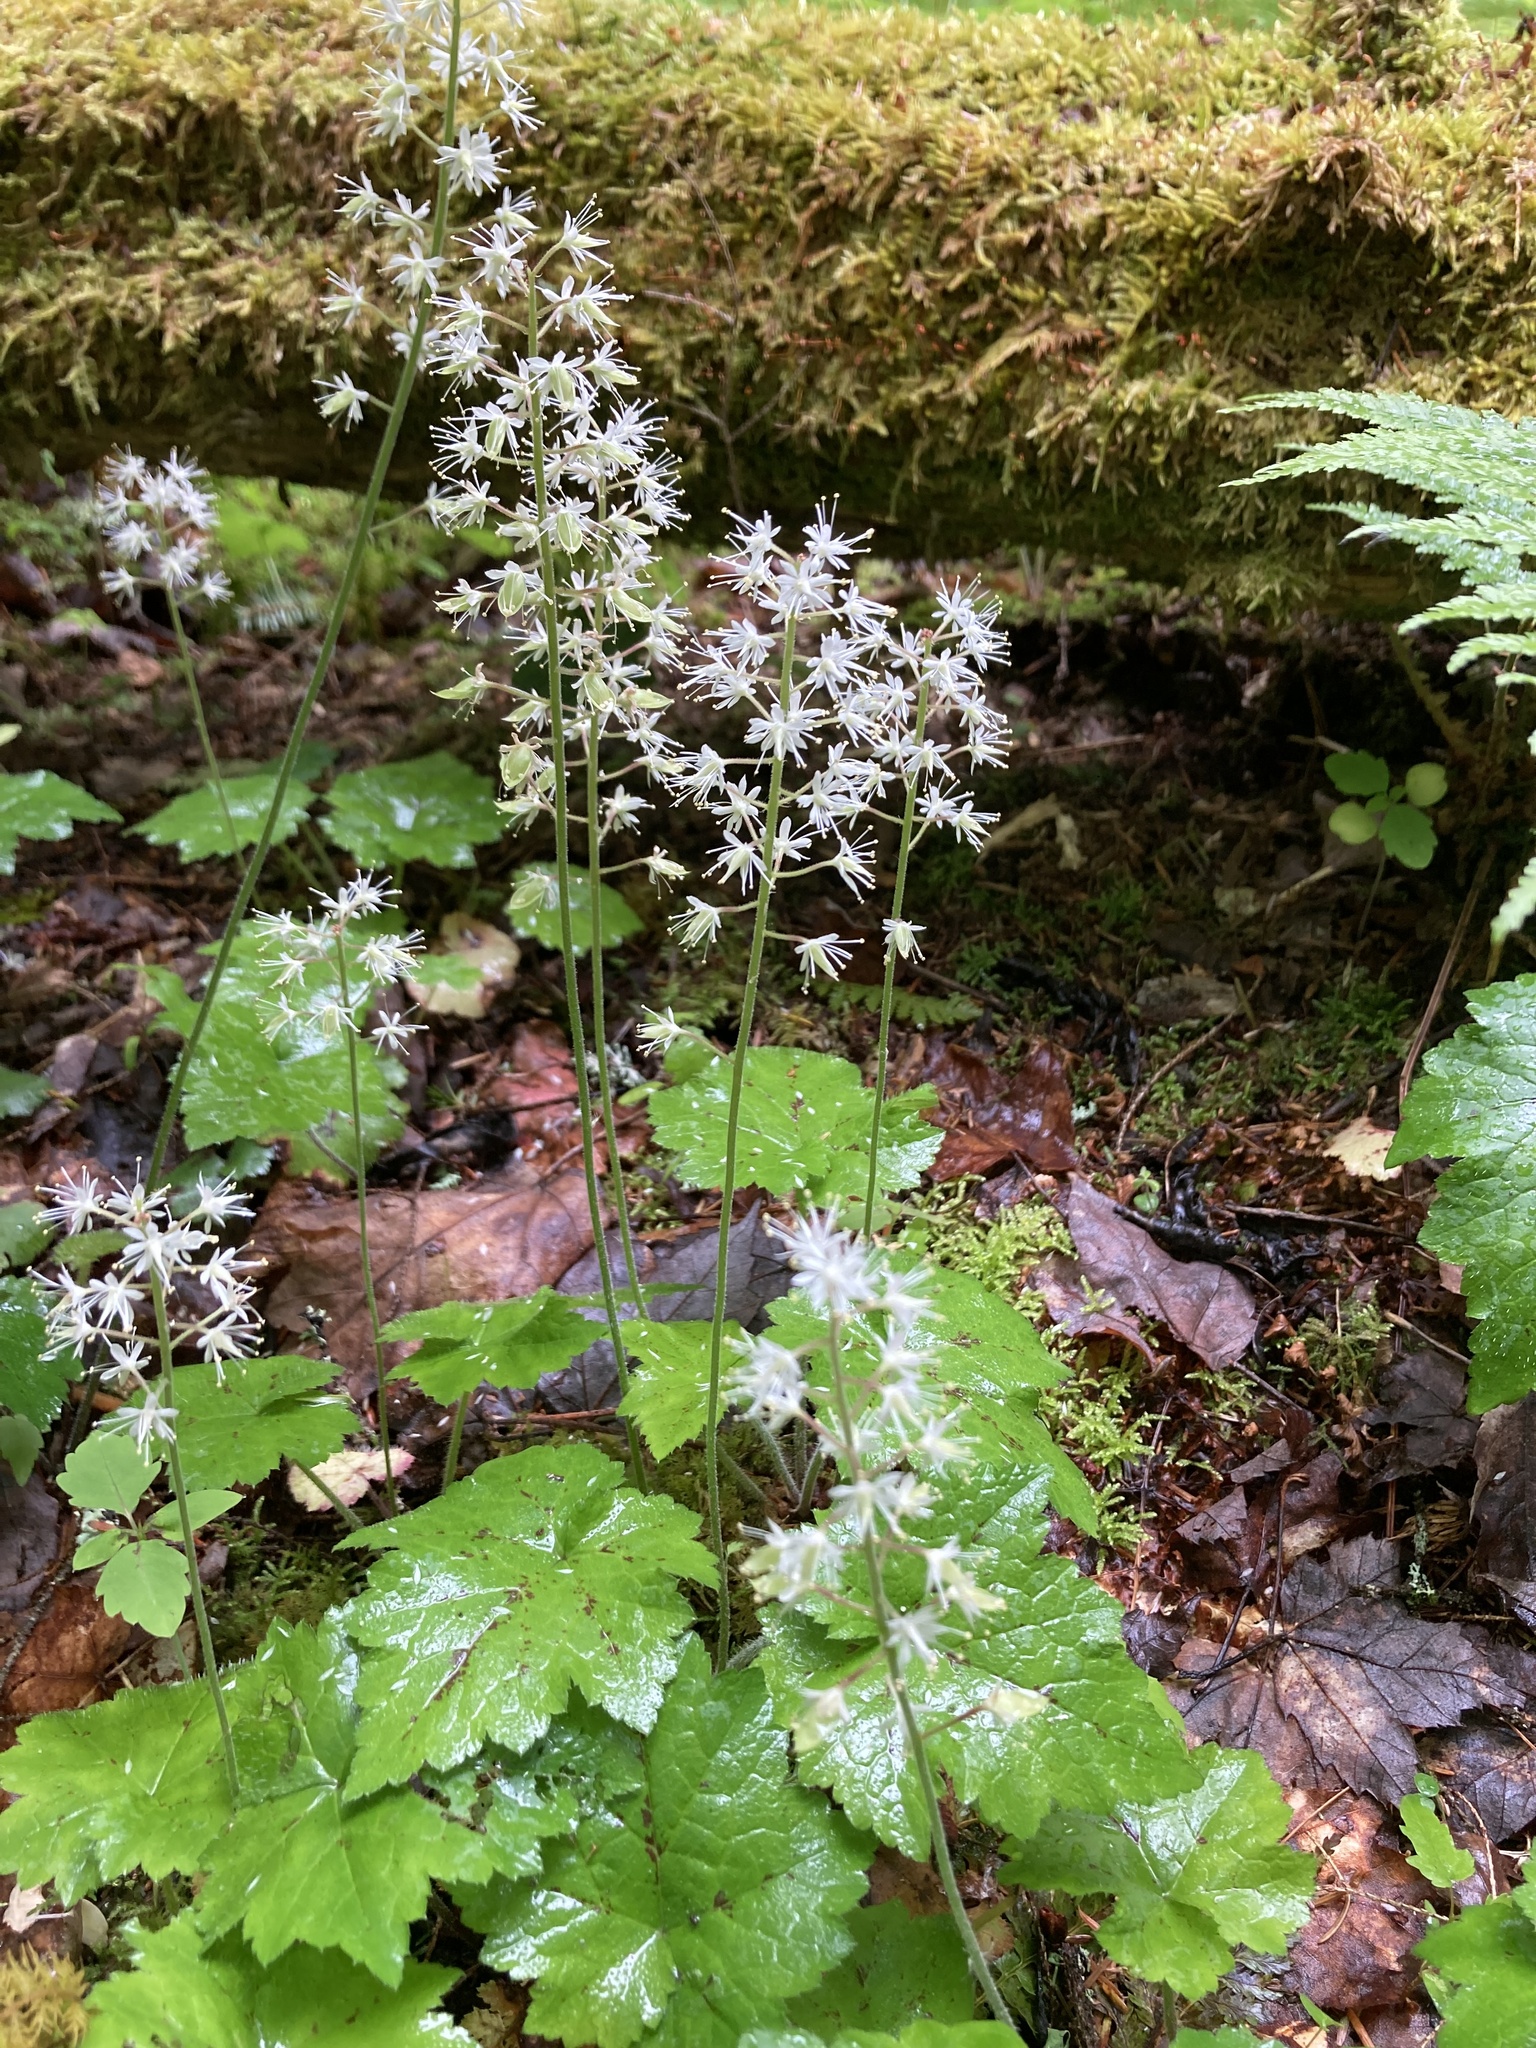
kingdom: Plantae
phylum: Tracheophyta
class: Magnoliopsida
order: Saxifragales
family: Saxifragaceae
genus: Tiarella
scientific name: Tiarella stolonifera
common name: Stoloniferous foamflower
